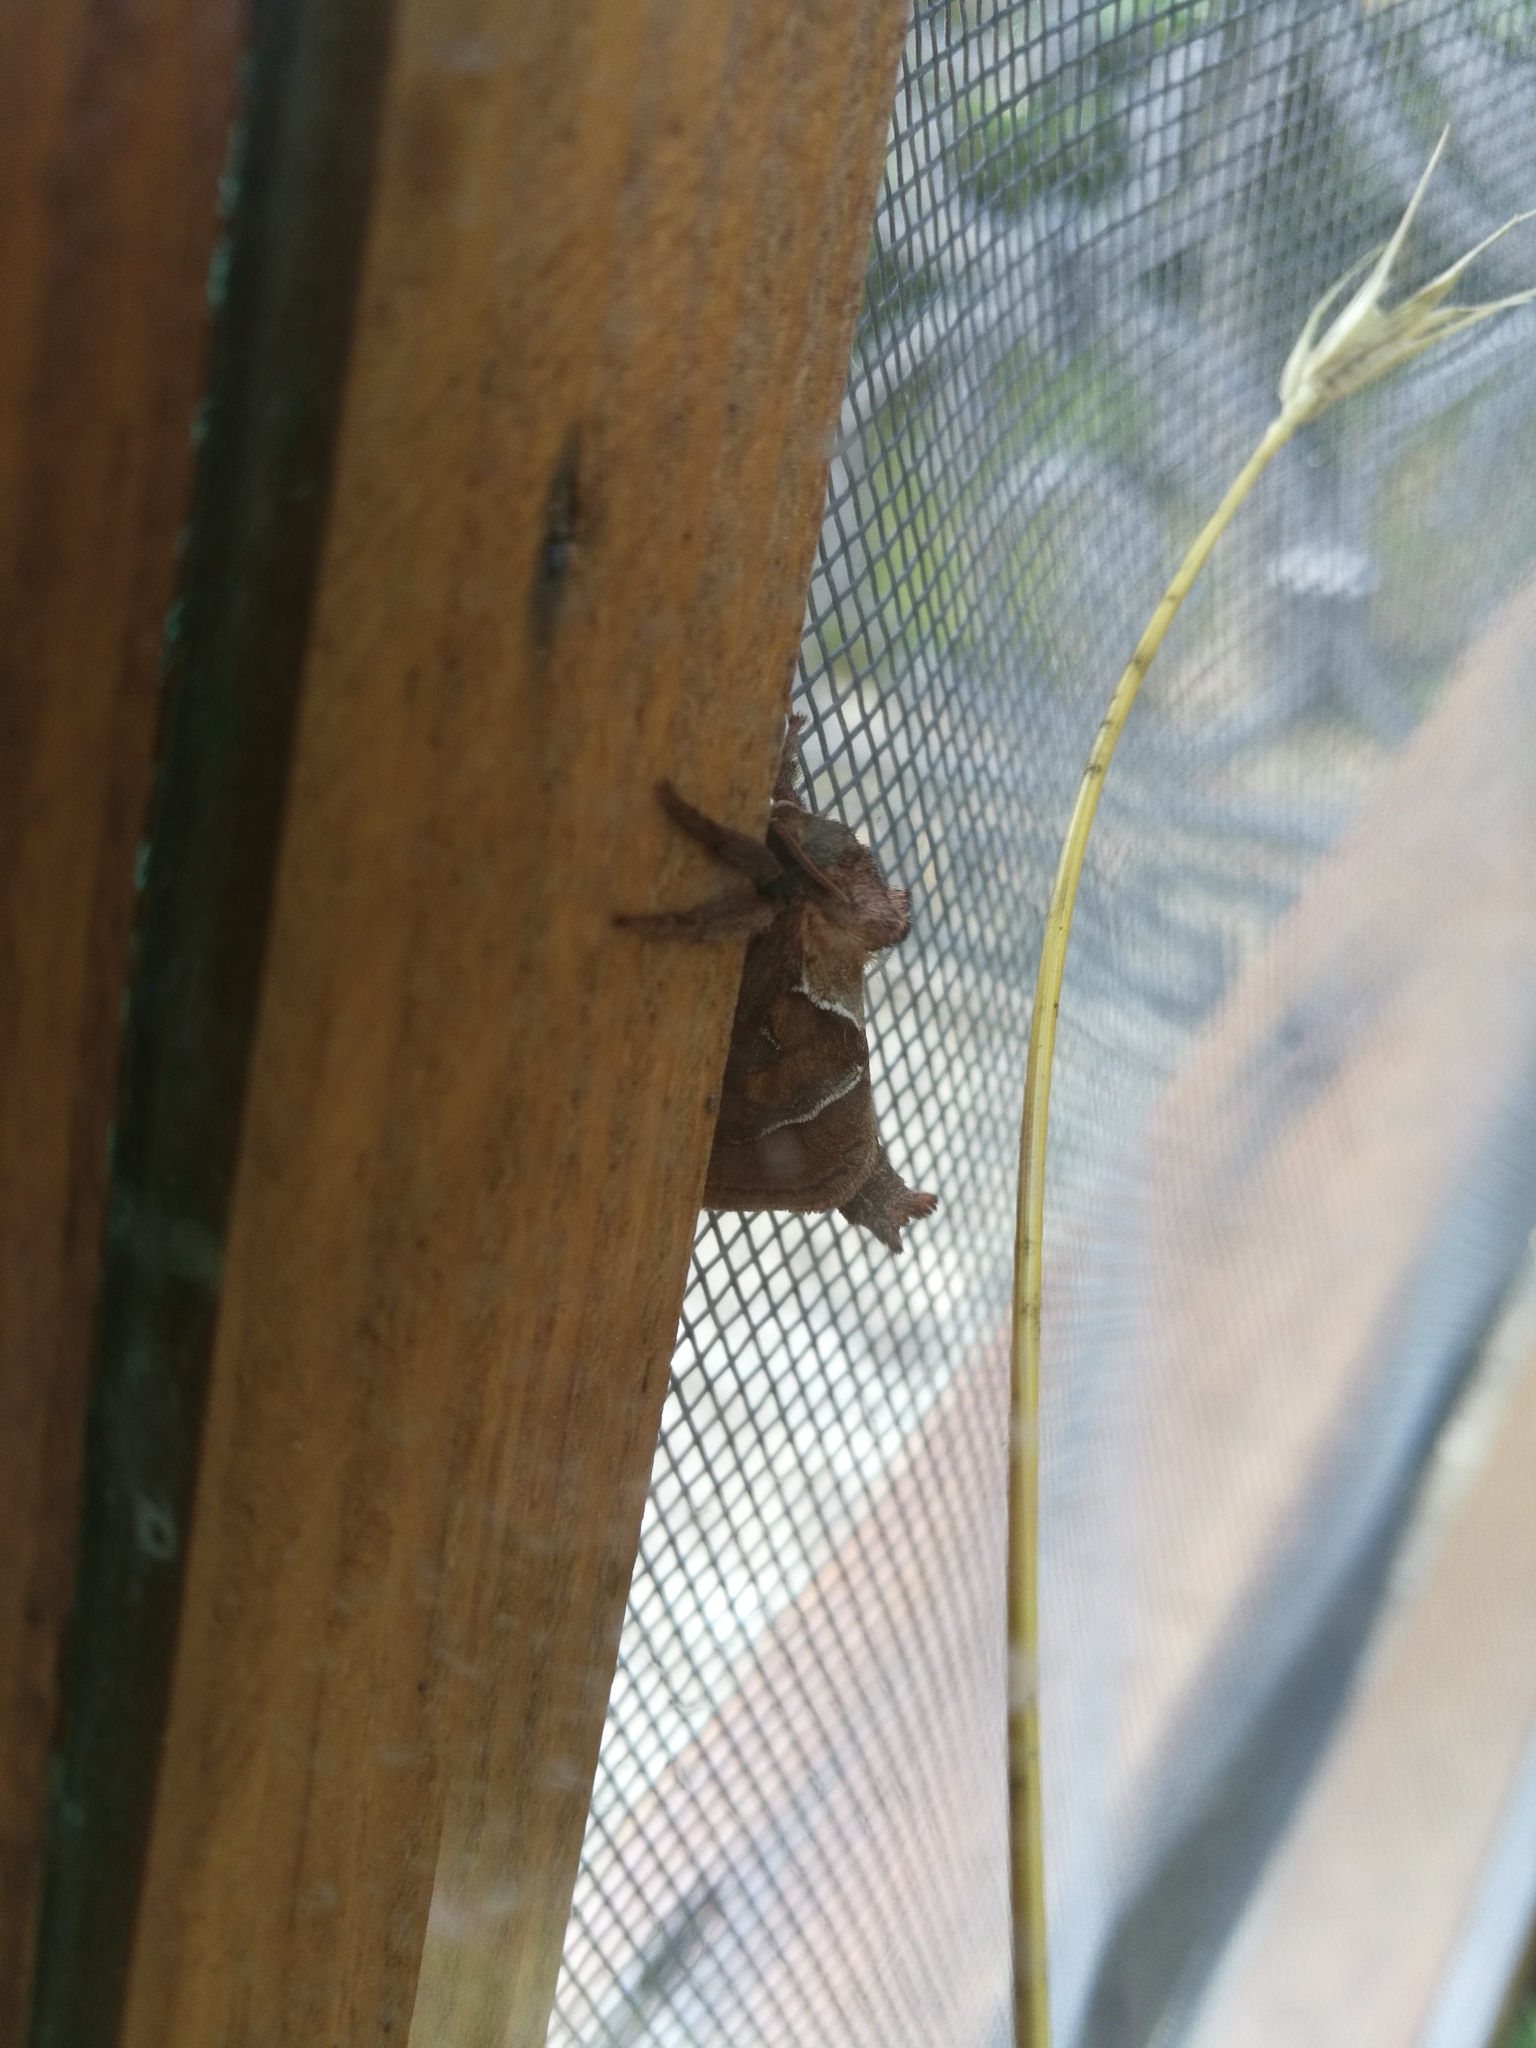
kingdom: Animalia
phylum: Arthropoda
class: Insecta
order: Lepidoptera
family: Hepialidae
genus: Triodia
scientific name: Triodia sylvina
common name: Orange swift
